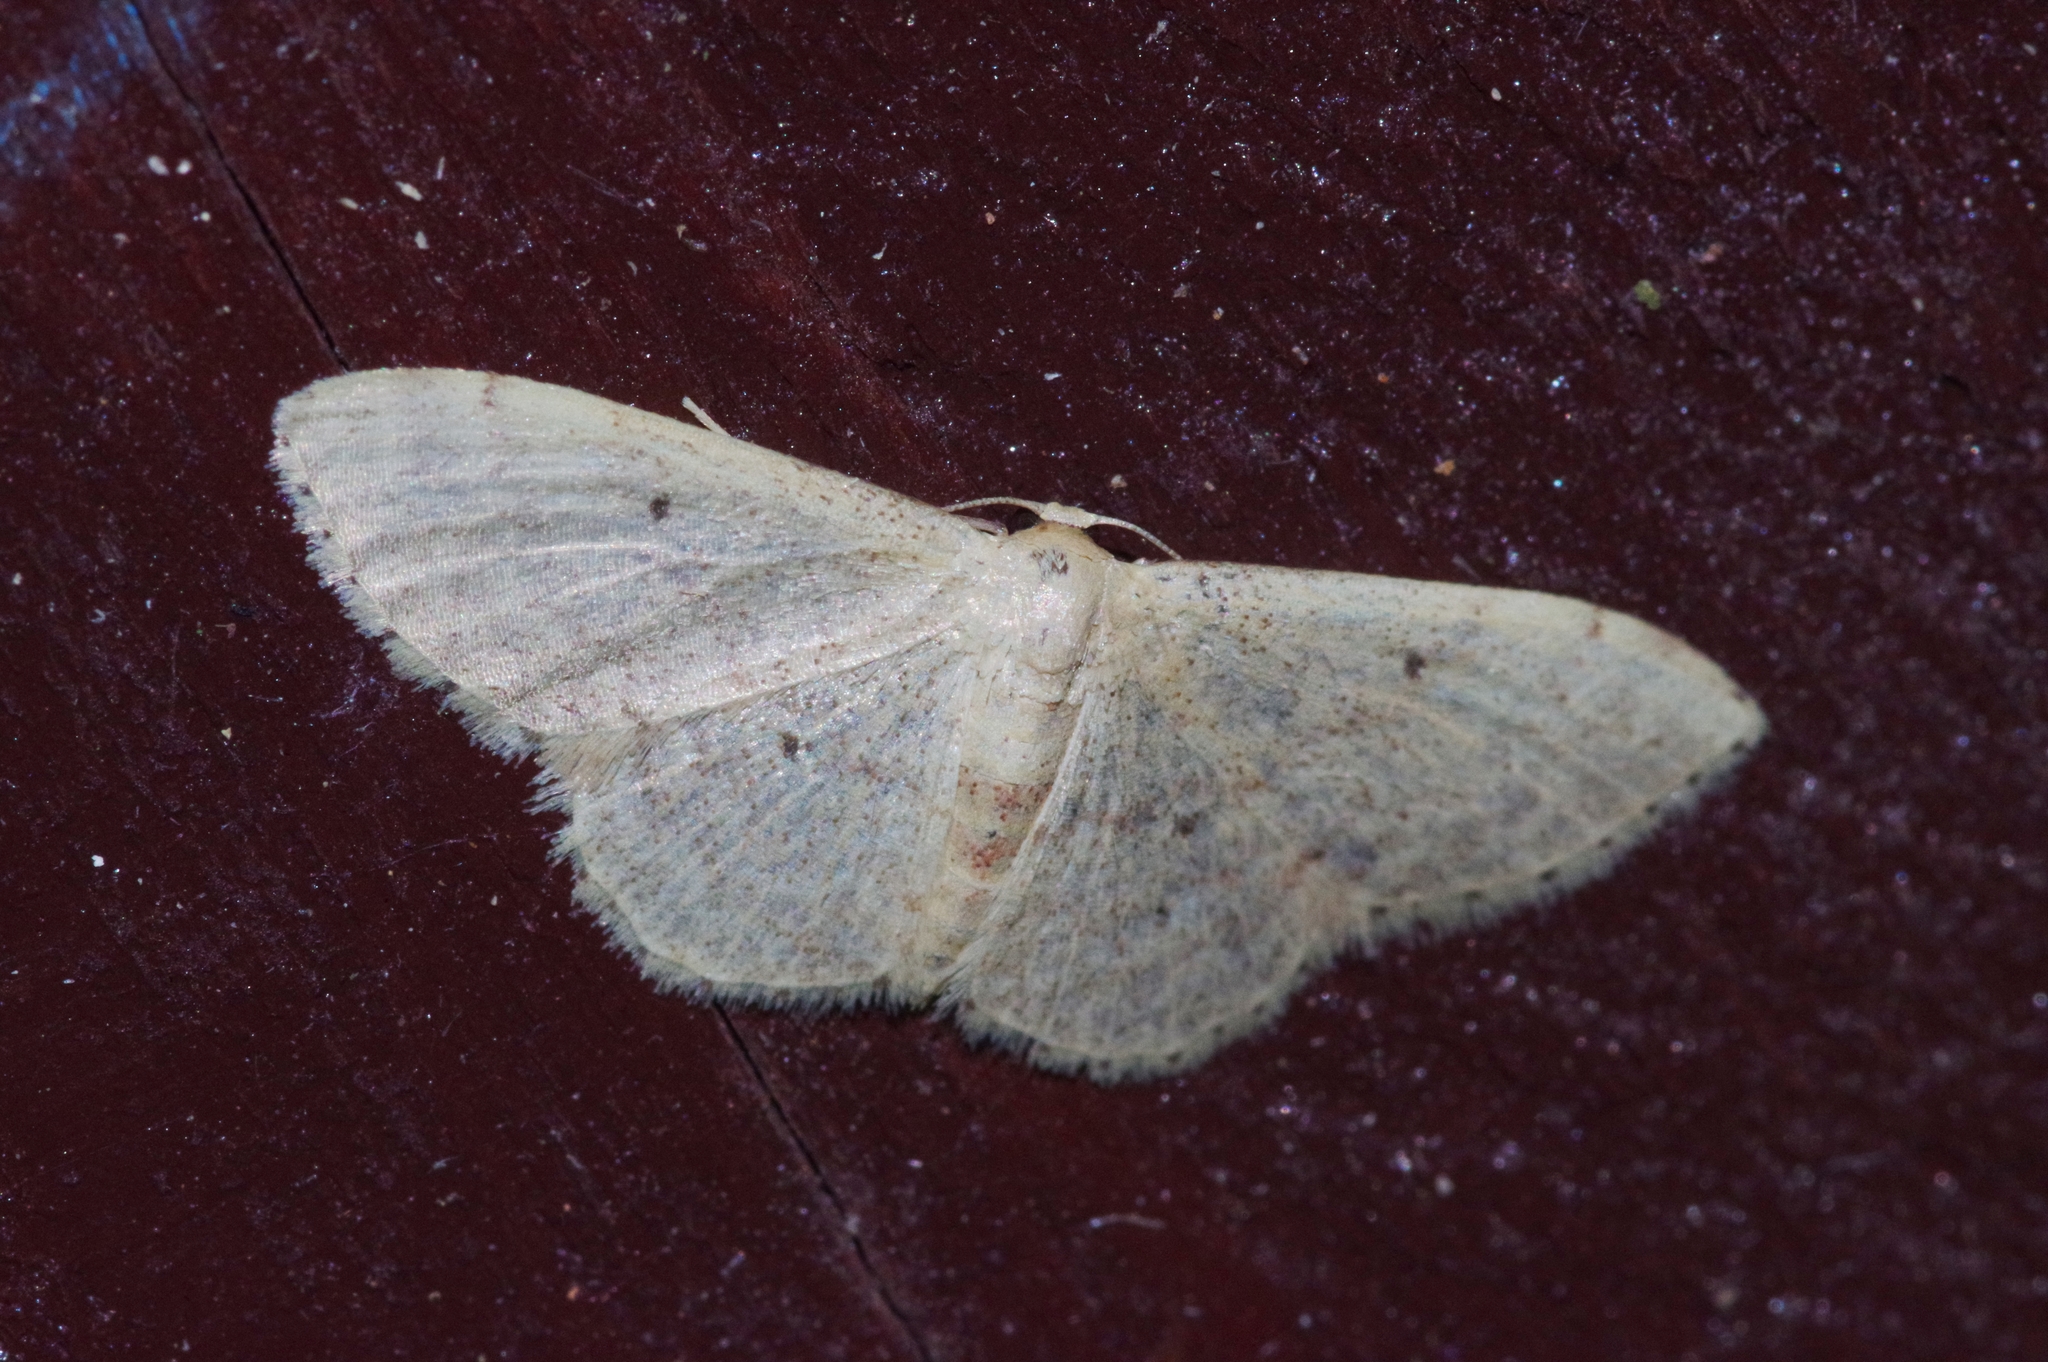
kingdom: Animalia
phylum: Arthropoda
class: Insecta
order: Lepidoptera
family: Geometridae
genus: Idaea
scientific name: Idaea sakuraii
